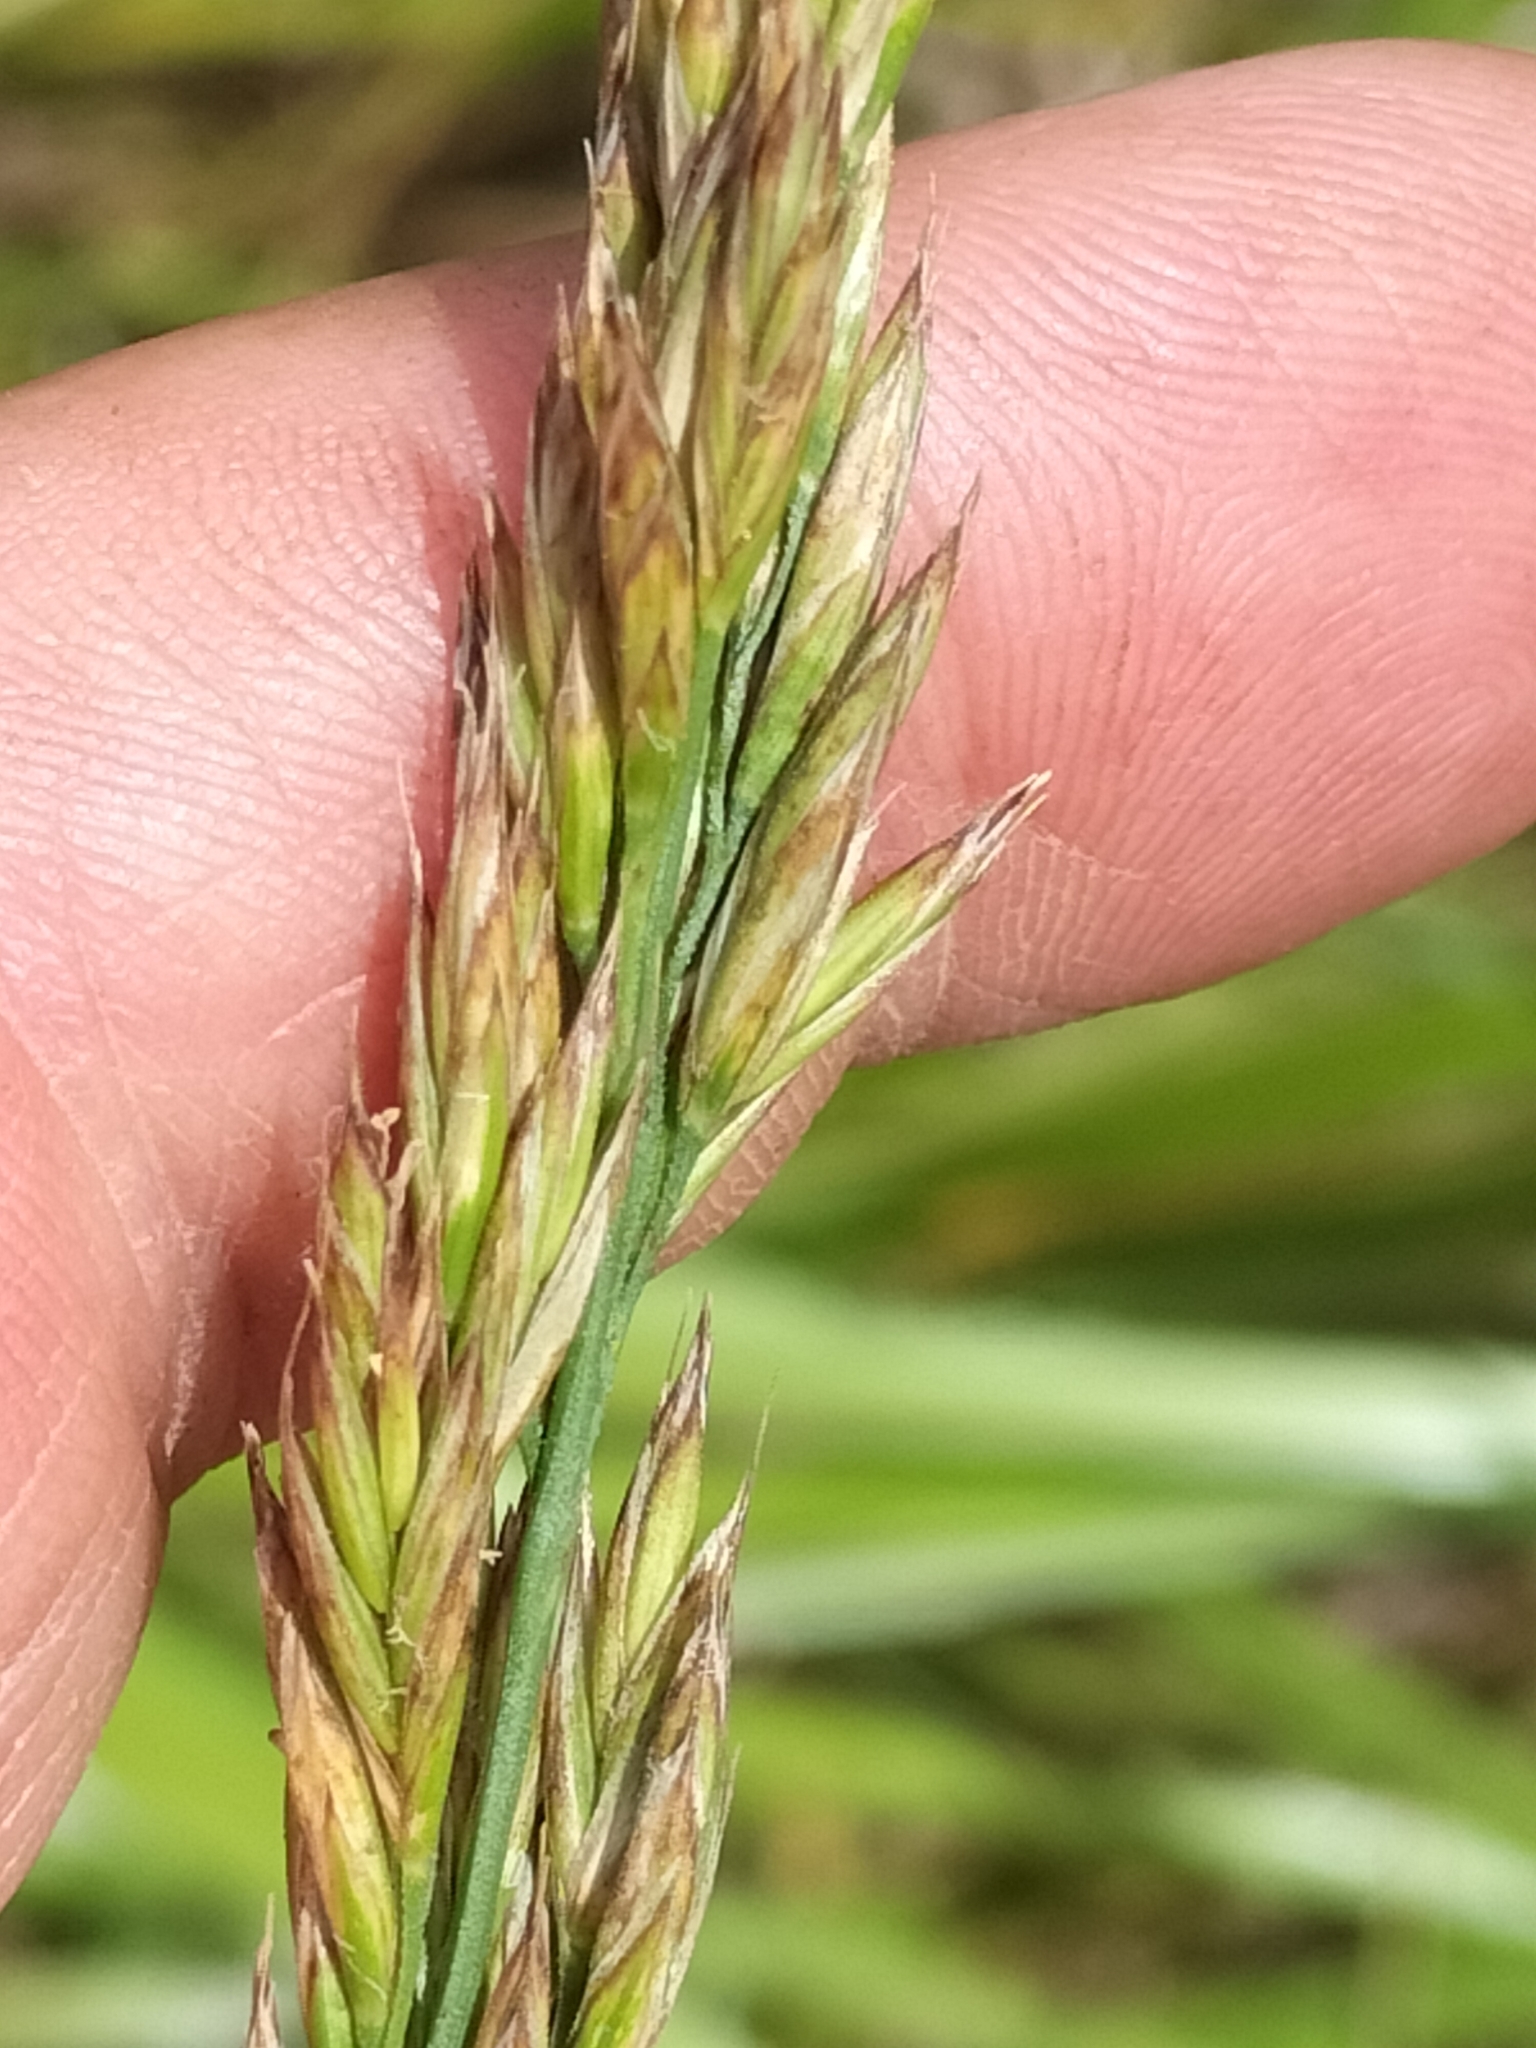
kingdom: Plantae
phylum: Tracheophyta
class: Liliopsida
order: Poales
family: Poaceae
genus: Lolium
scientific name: Lolium arundinaceum
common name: Reed fescue
